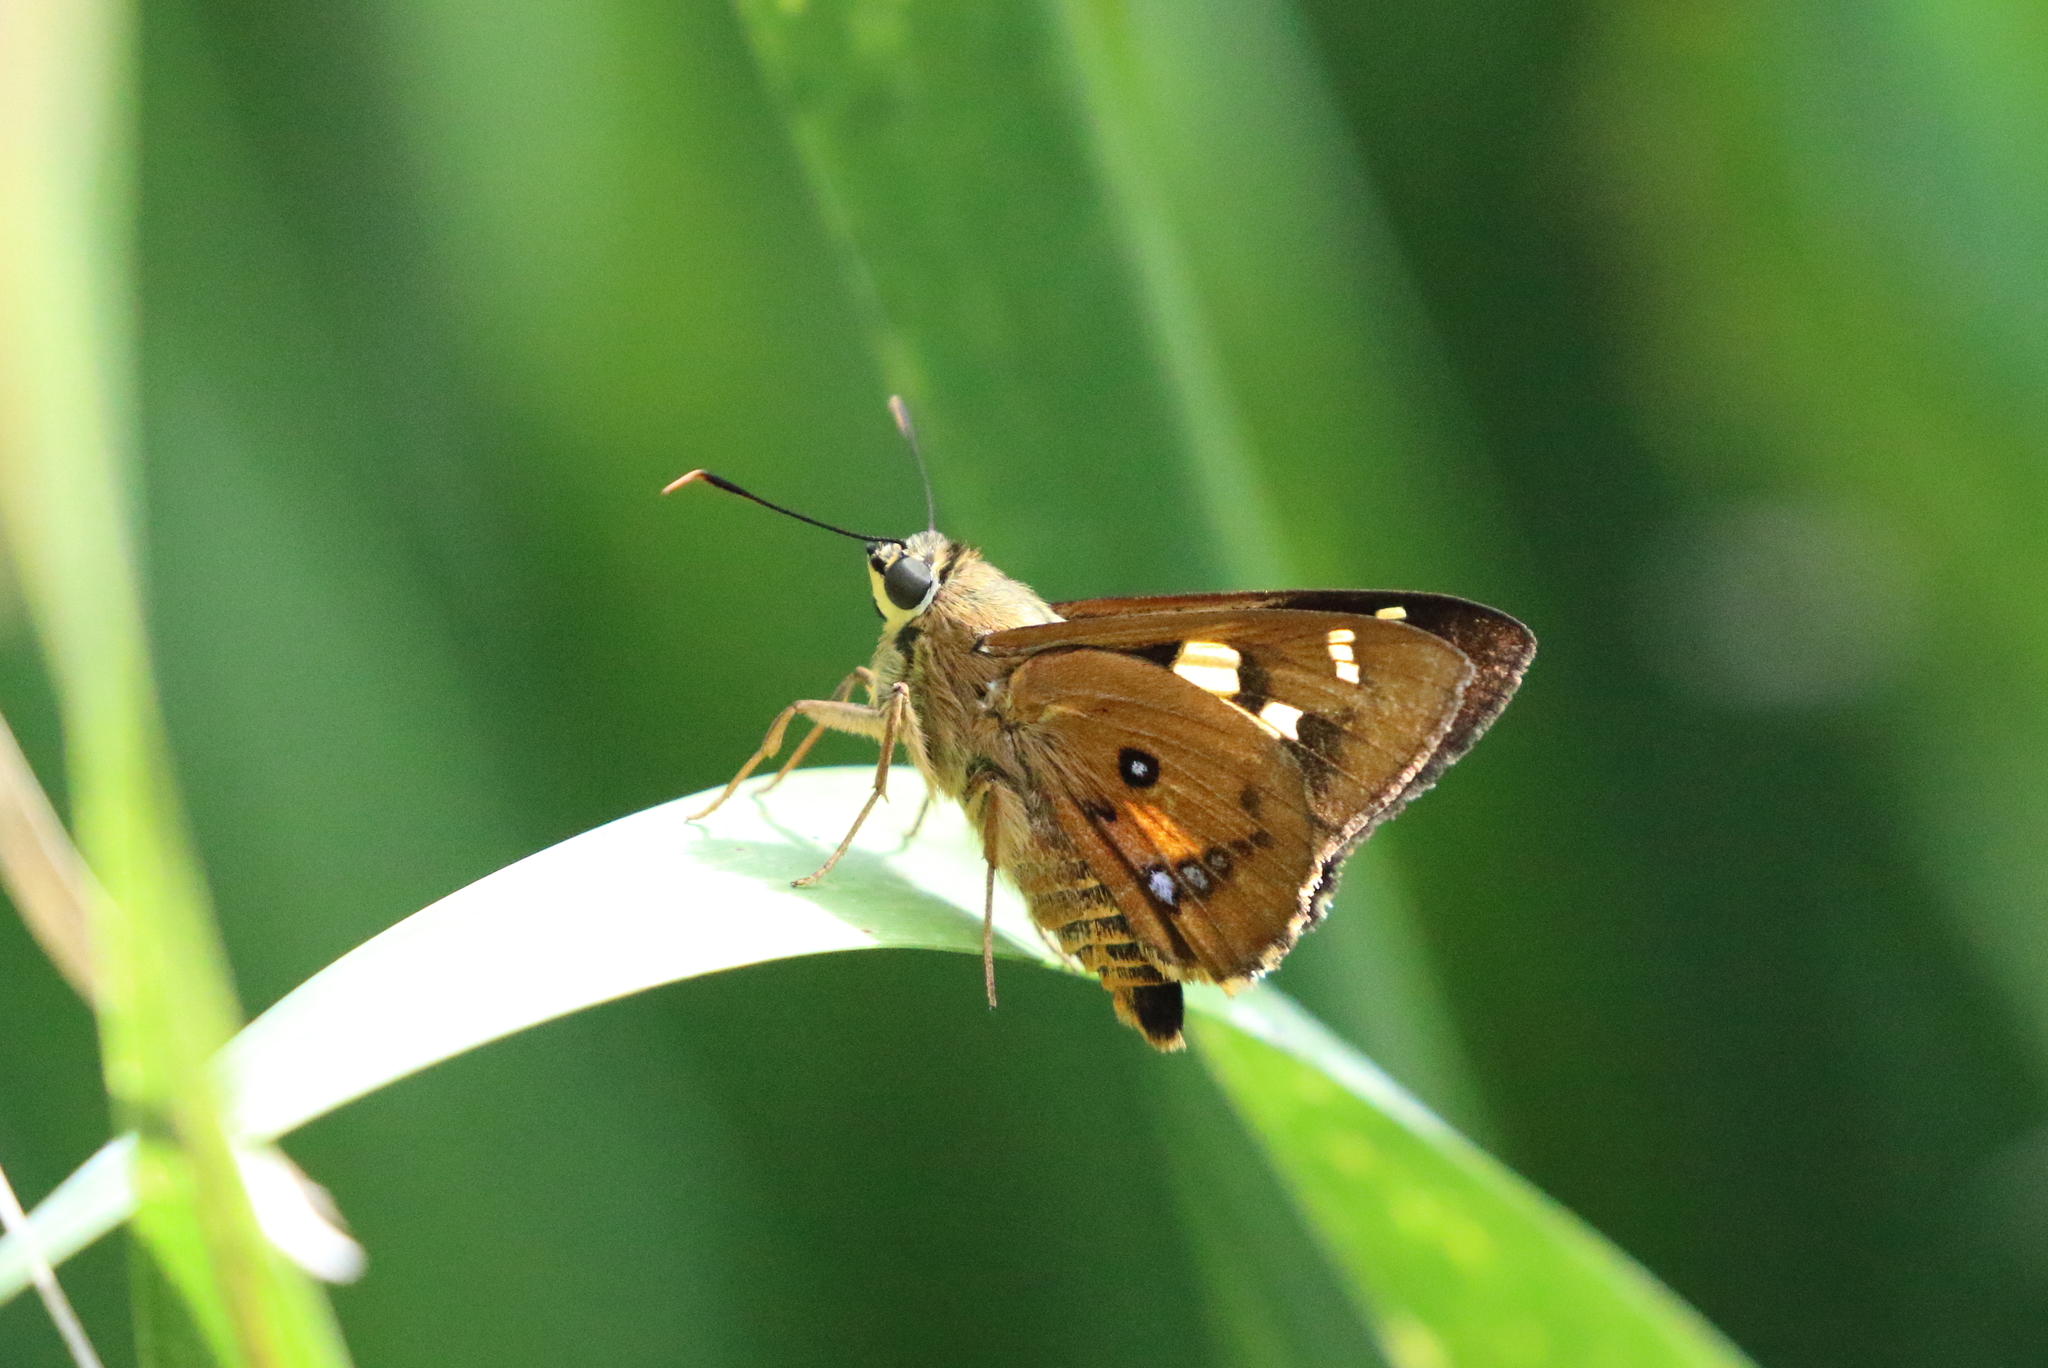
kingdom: Animalia
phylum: Arthropoda
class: Insecta
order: Lepidoptera
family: Hesperiidae
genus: Trapezites
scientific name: Trapezites symmomus
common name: Splendid ochre
